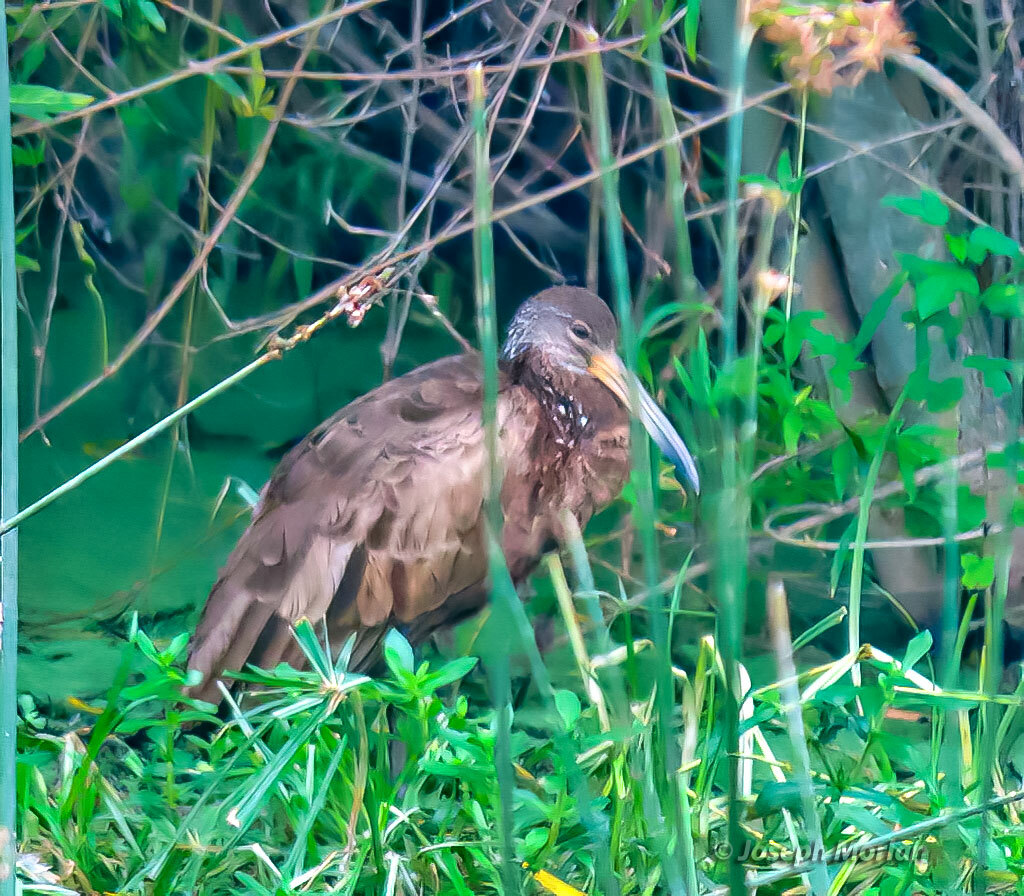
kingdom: Animalia
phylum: Chordata
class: Aves
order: Gruiformes
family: Aramidae
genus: Aramus
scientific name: Aramus guarauna
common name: Limpkin
